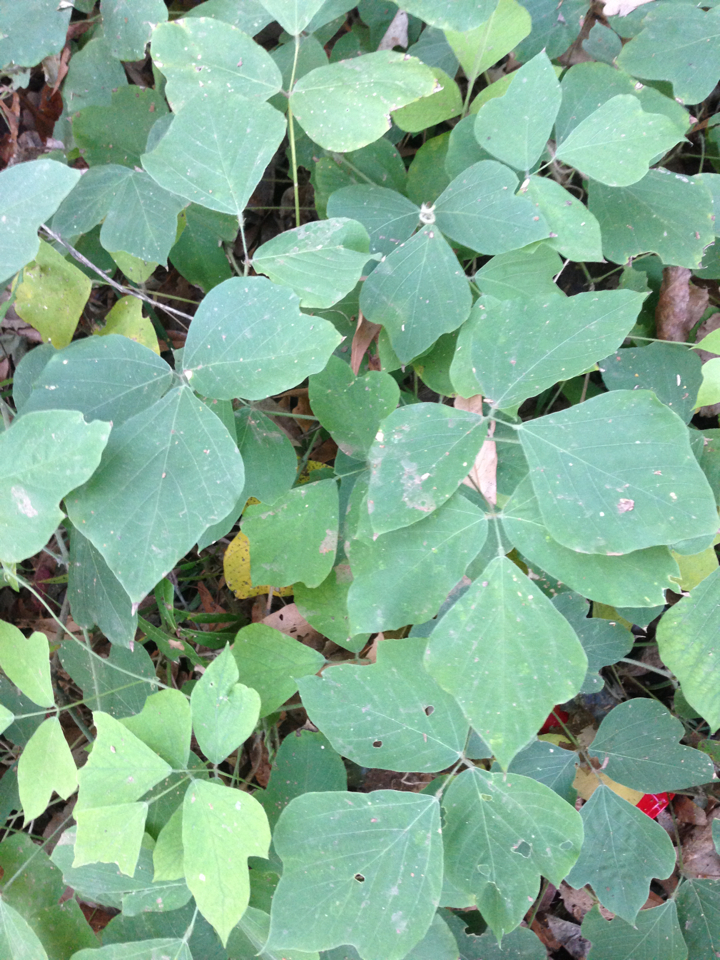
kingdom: Plantae
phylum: Tracheophyta
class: Magnoliopsida
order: Fabales
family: Fabaceae
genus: Pueraria
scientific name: Pueraria montana
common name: Kudzu
